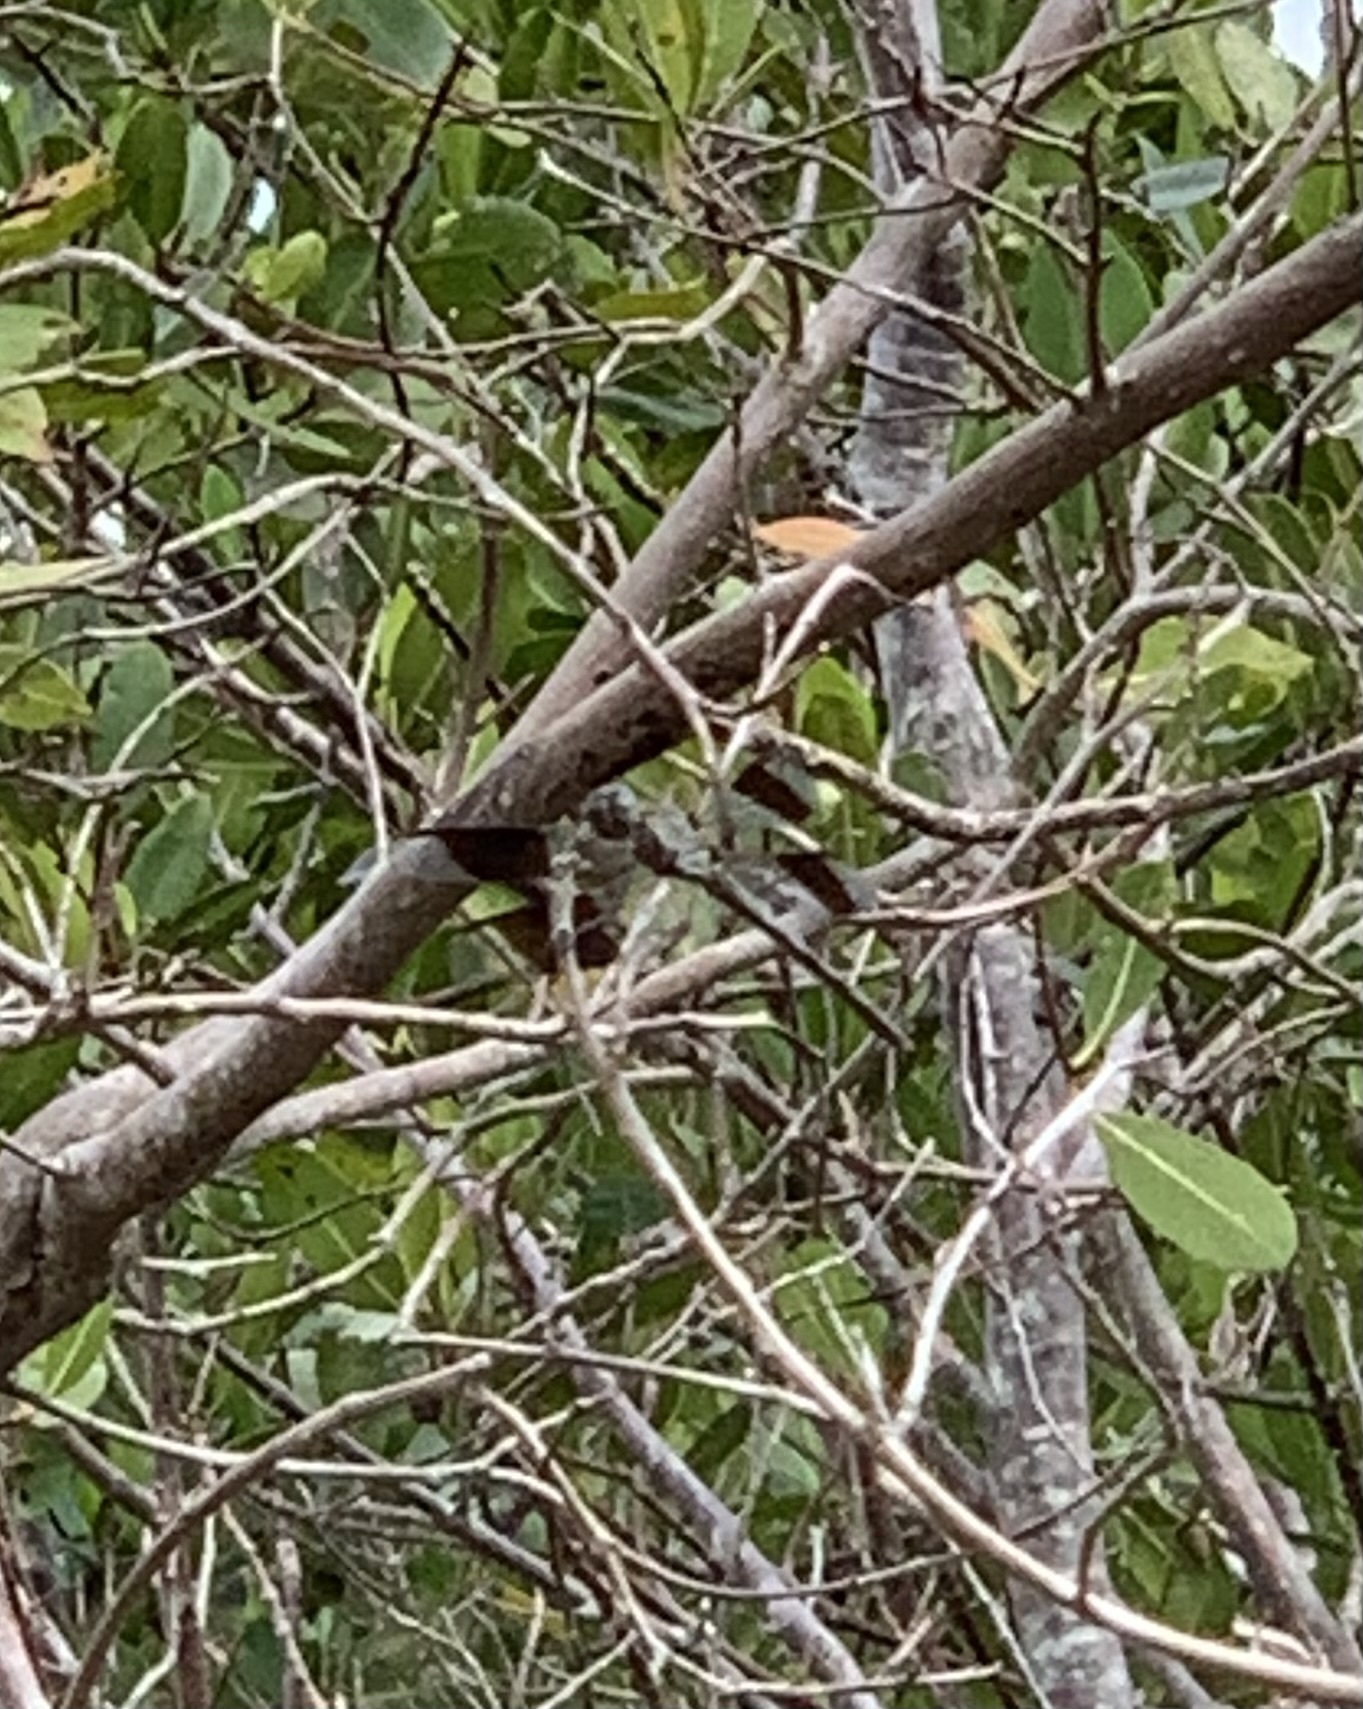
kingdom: Animalia
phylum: Arthropoda
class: Insecta
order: Odonata
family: Libellulidae
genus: Erythrodiplax
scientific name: Erythrodiplax umbrata
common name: Band-winged dragonlet
